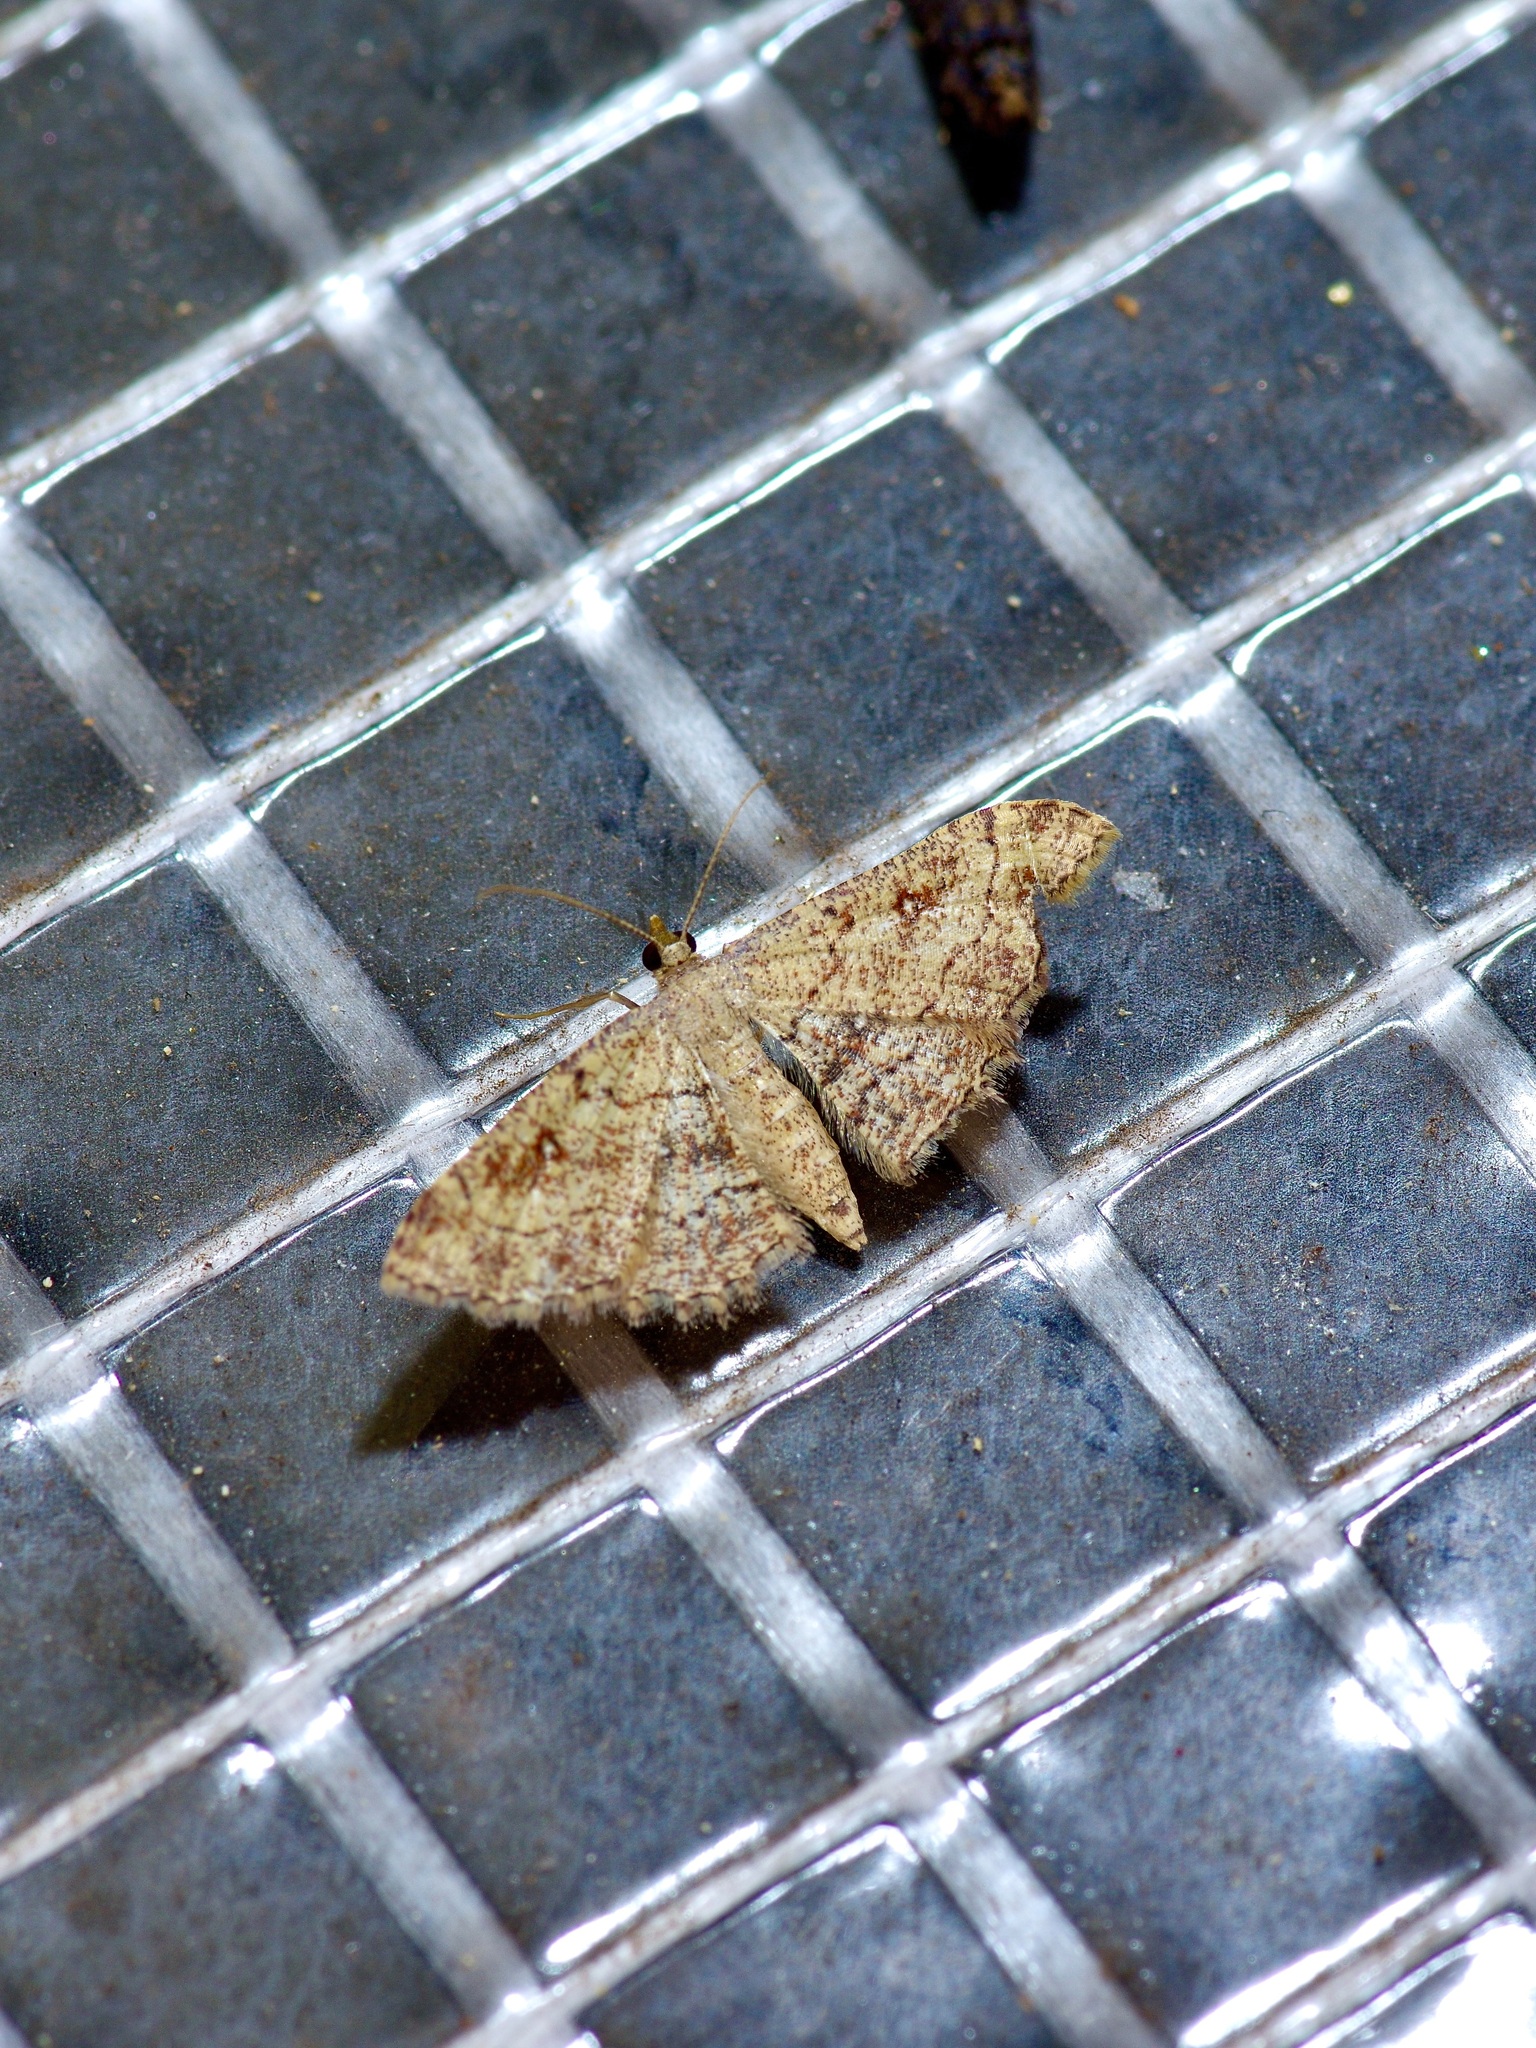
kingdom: Animalia
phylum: Arthropoda
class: Insecta
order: Lepidoptera
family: Geometridae
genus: Cyclophora
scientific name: Cyclophora nanaria
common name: Cankerworm
